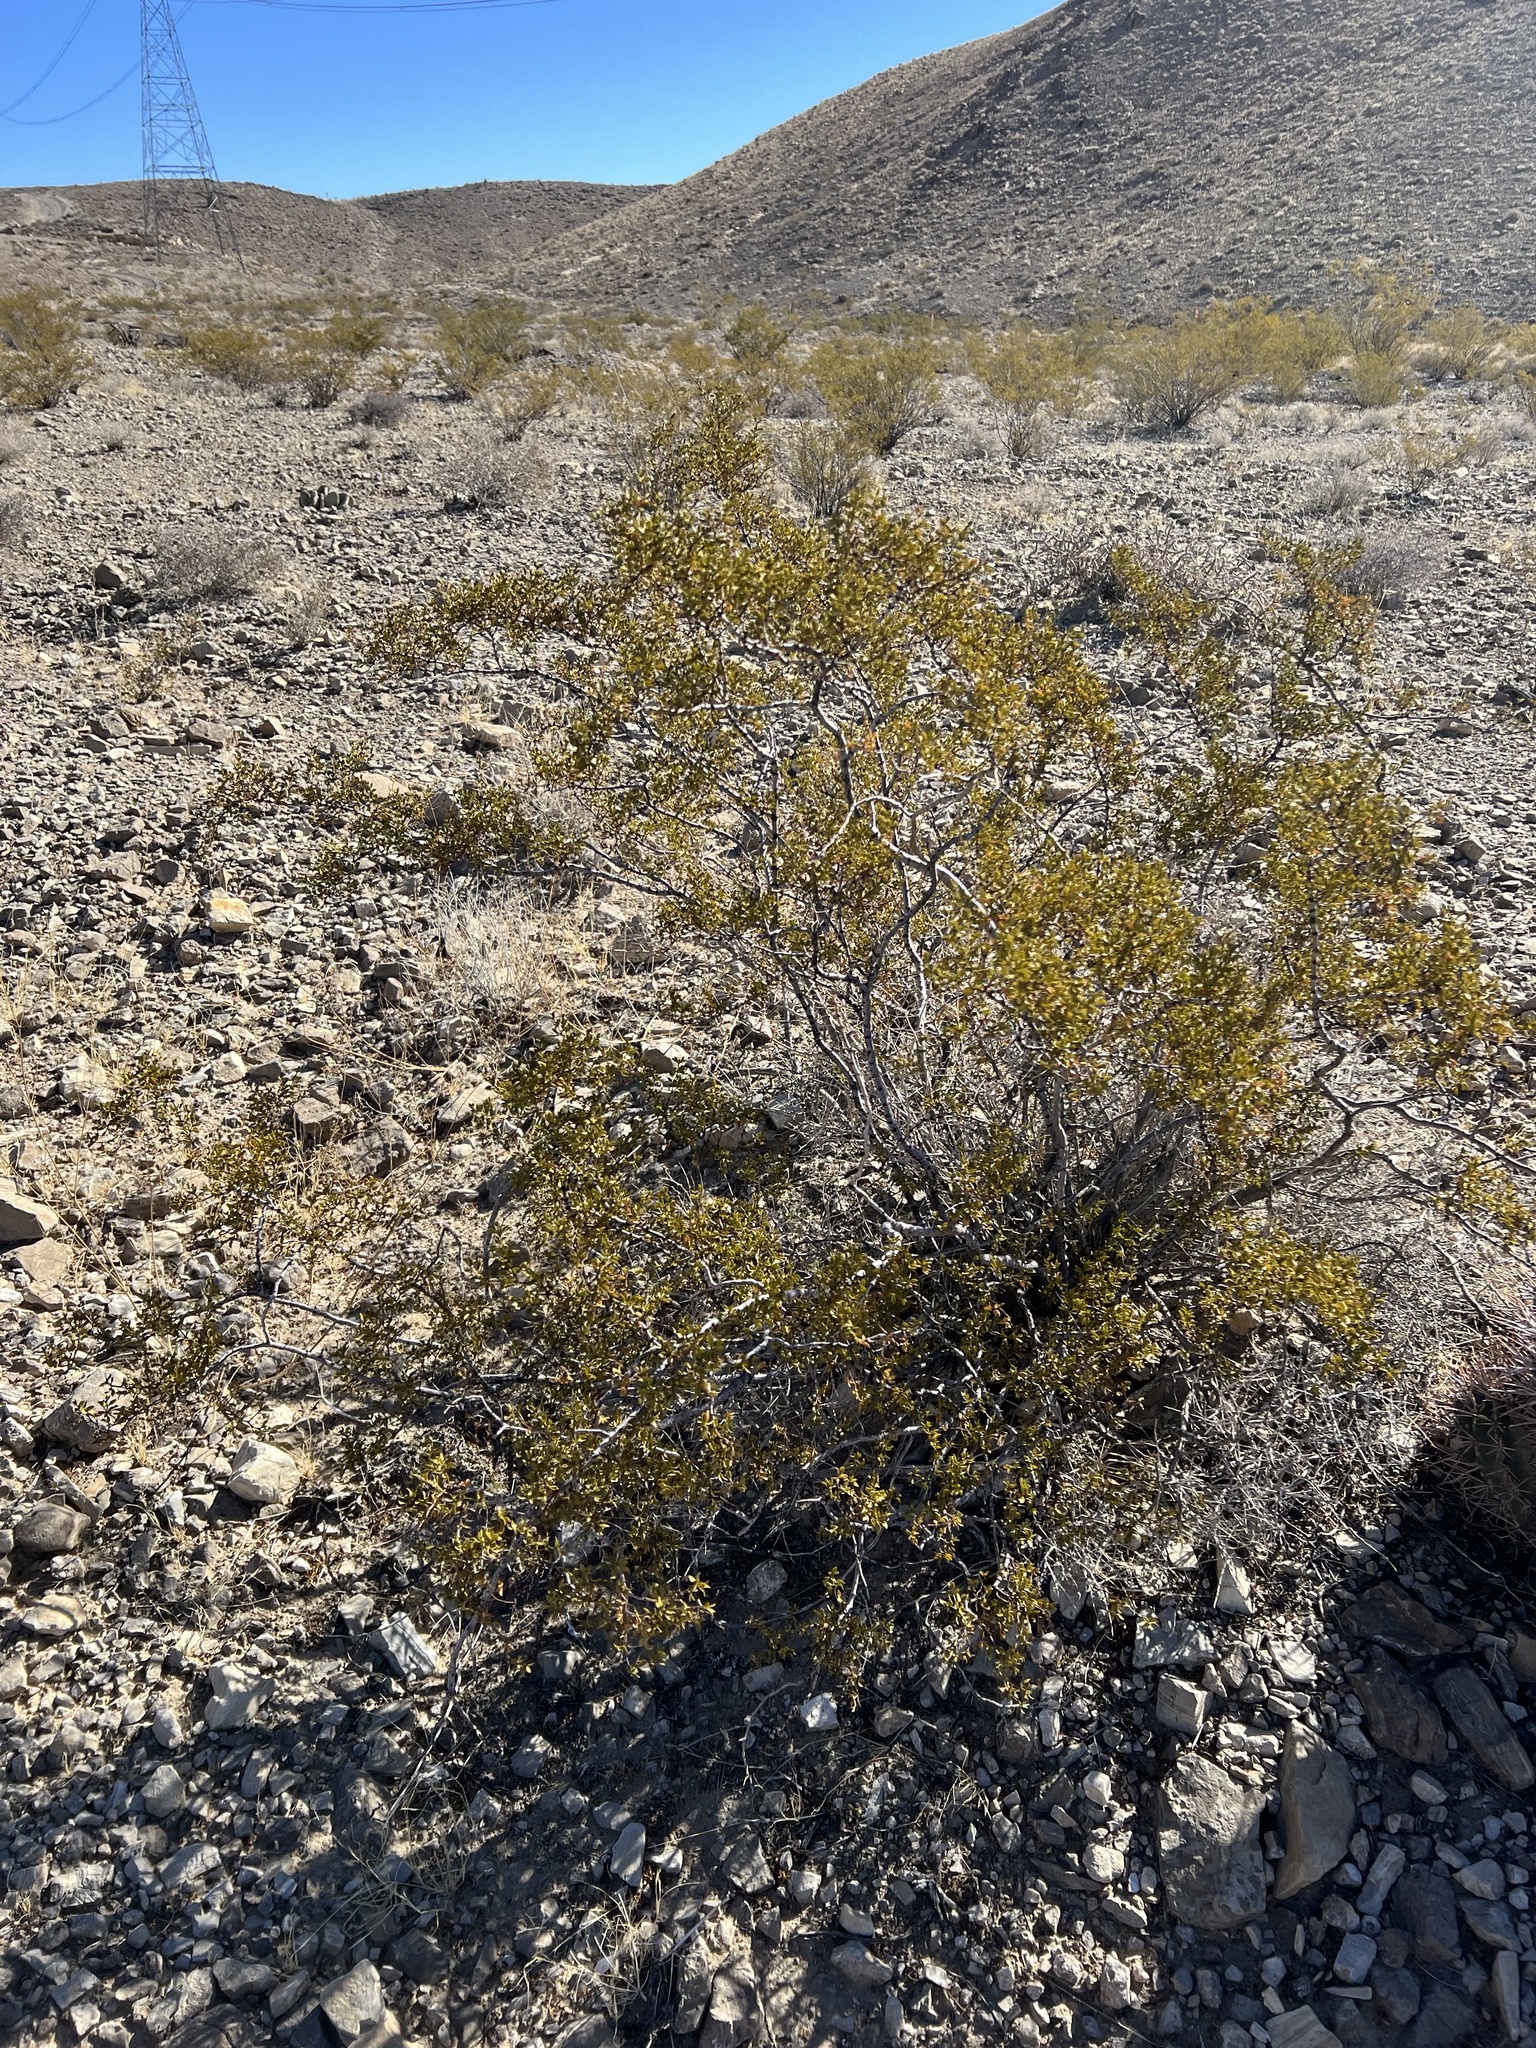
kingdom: Plantae
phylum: Tracheophyta
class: Magnoliopsida
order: Zygophyllales
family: Zygophyllaceae
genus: Larrea
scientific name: Larrea tridentata
